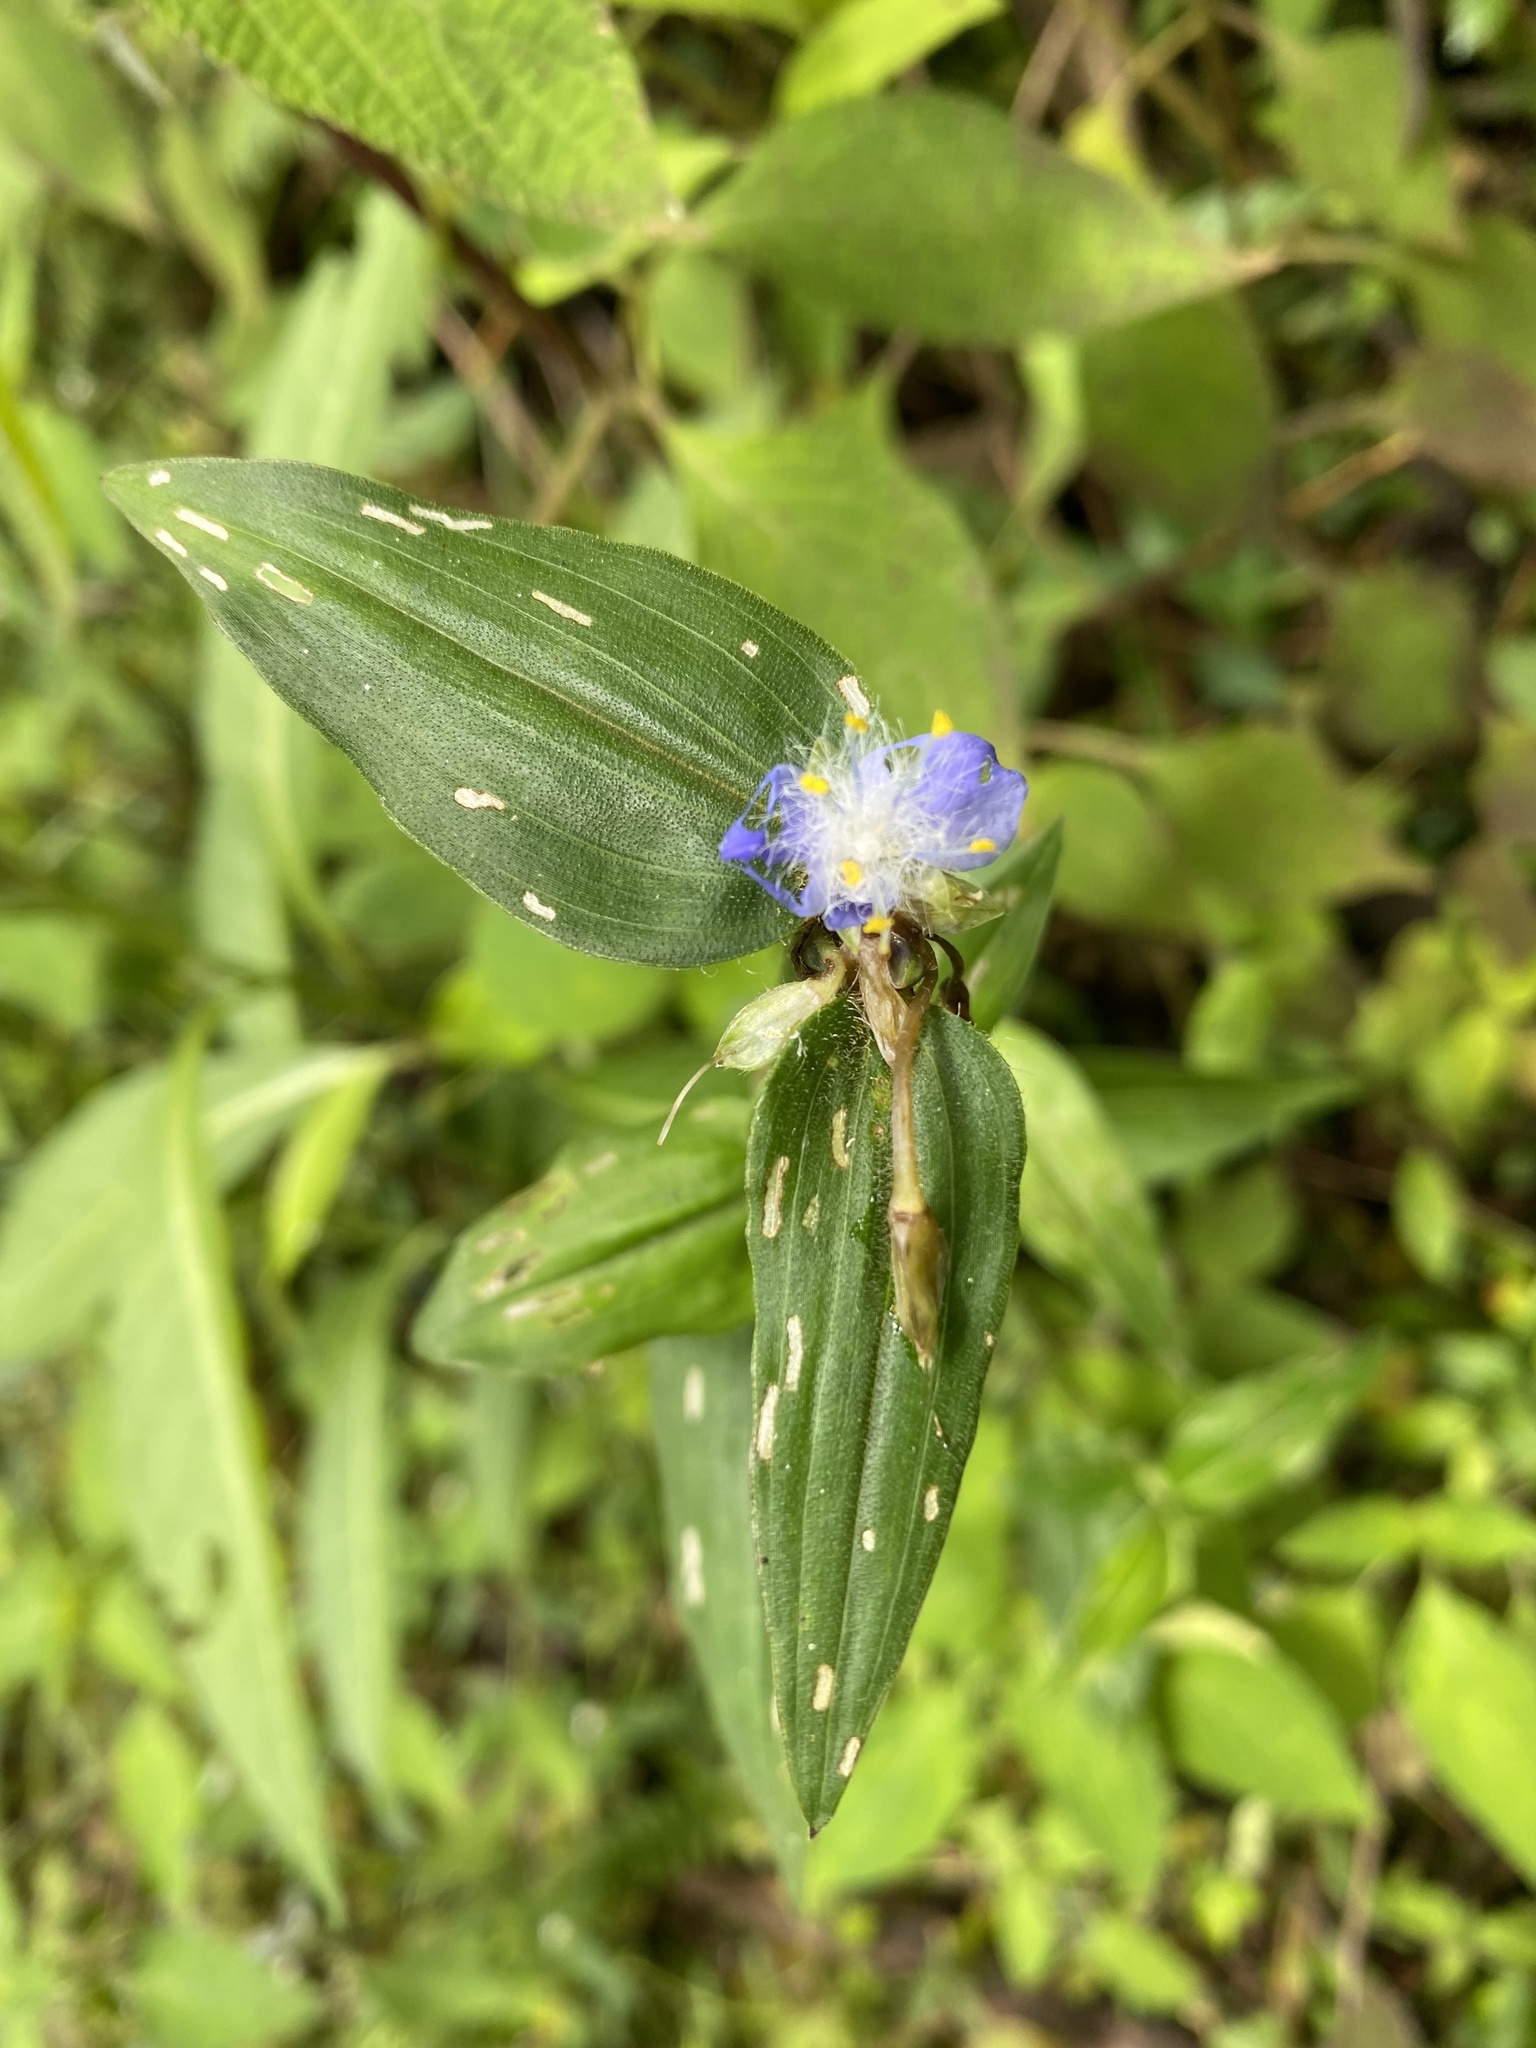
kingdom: Plantae
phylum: Tracheophyta
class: Liliopsida
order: Commelinales
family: Commelinaceae
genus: Elasis
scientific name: Elasis guatemalensis
